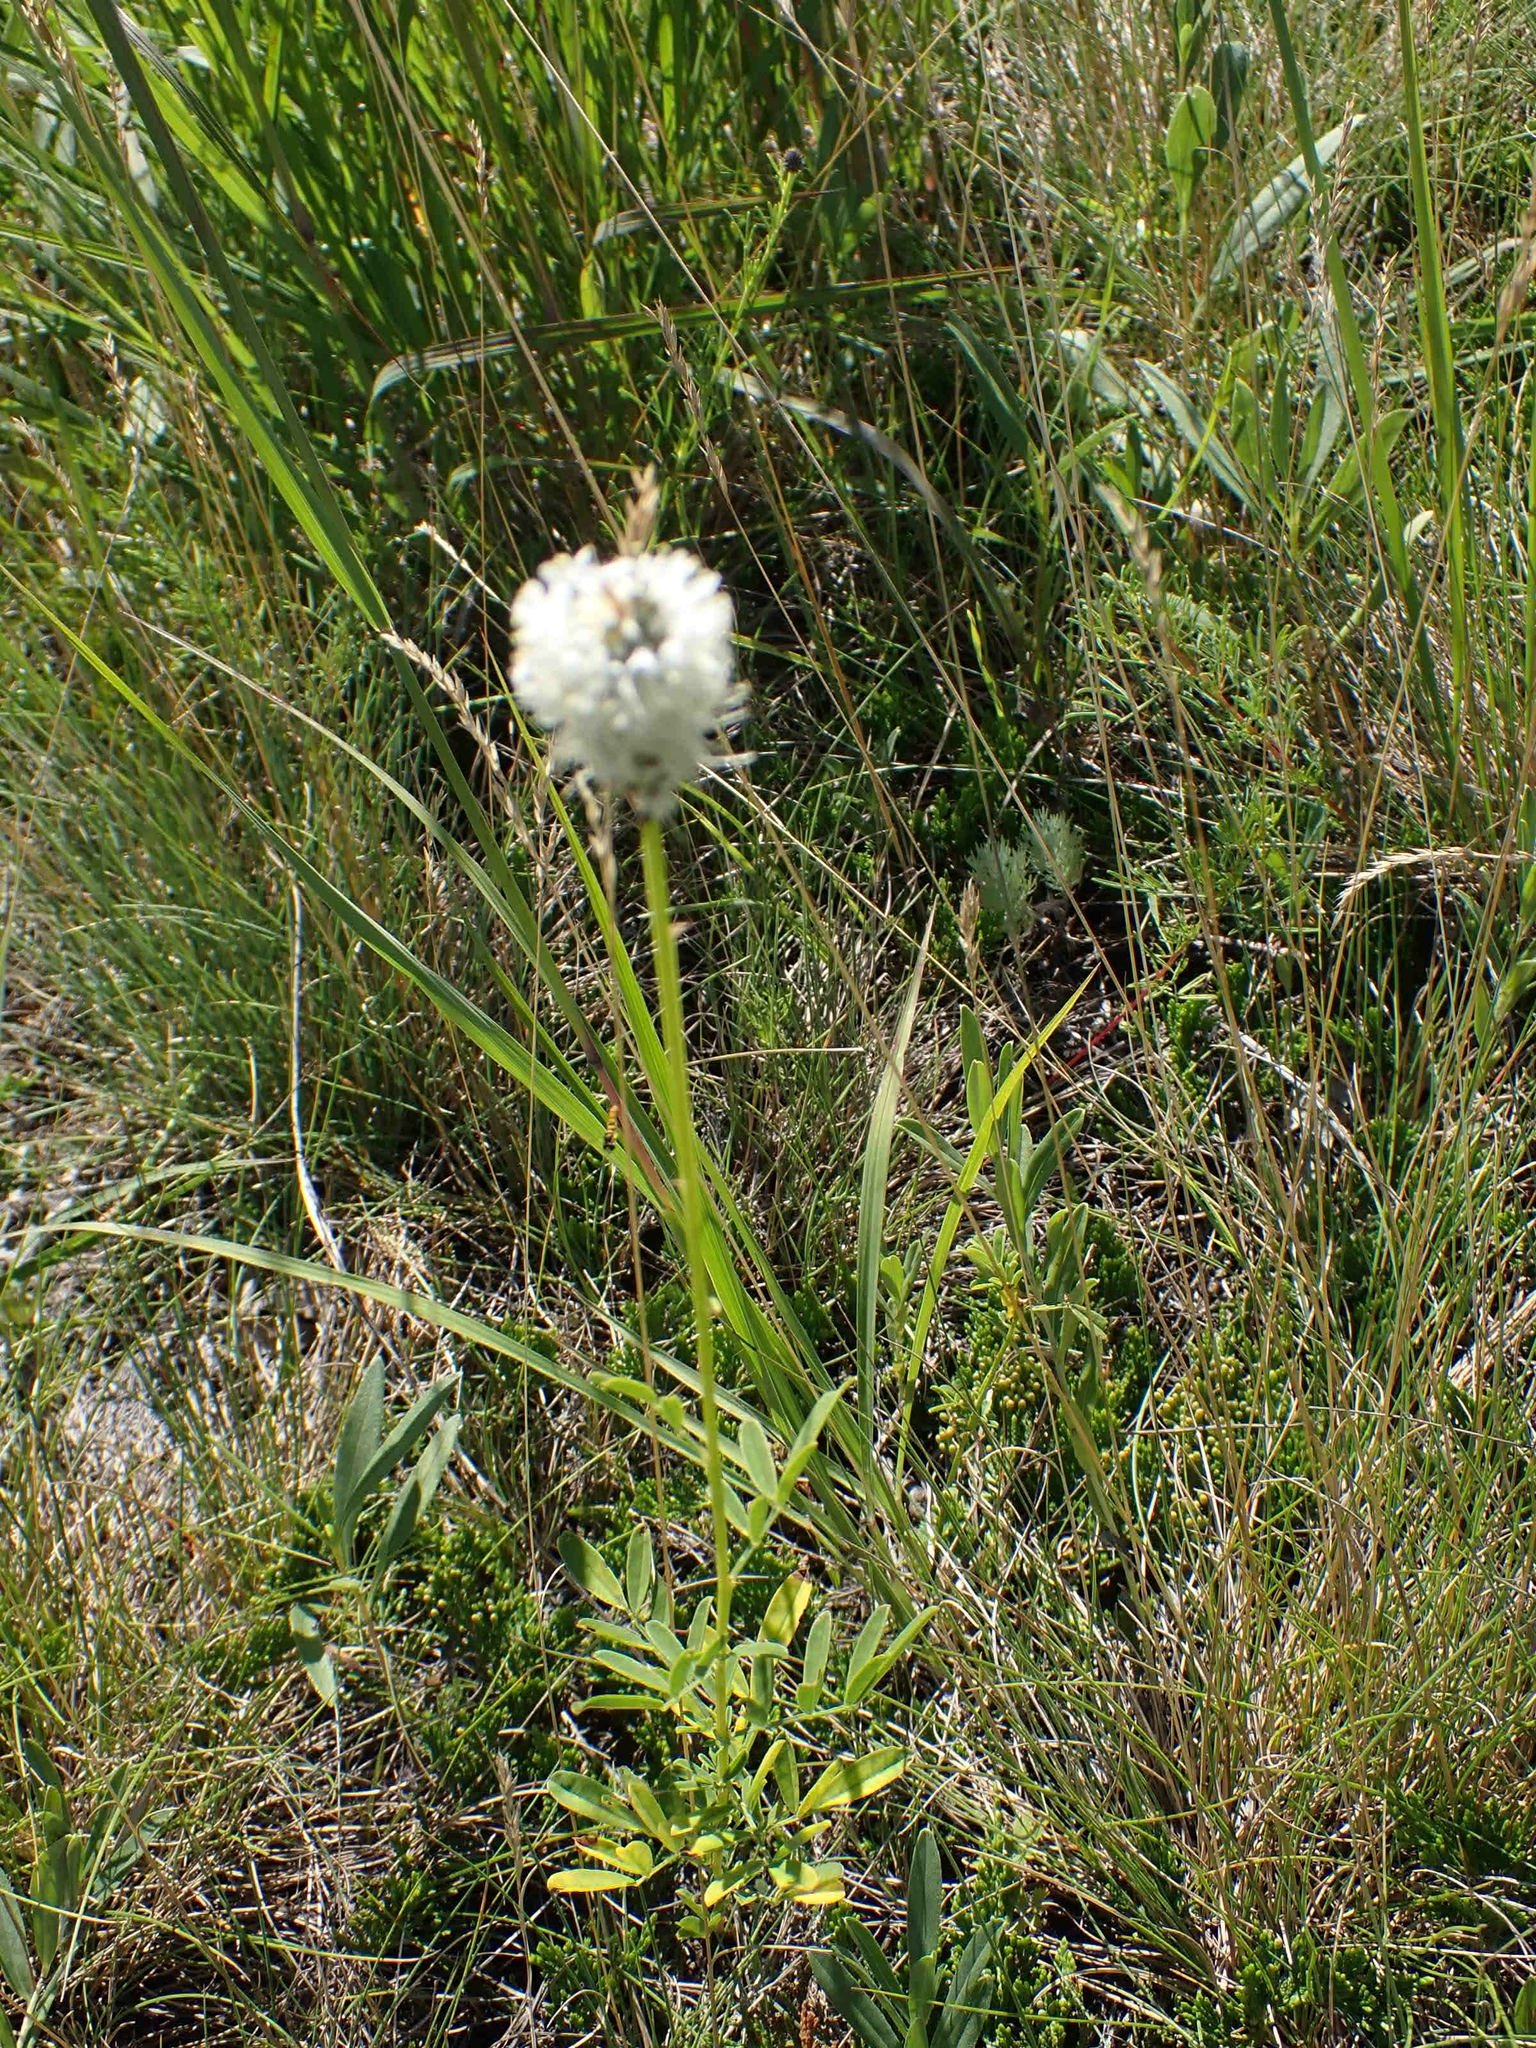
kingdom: Plantae
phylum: Tracheophyta
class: Magnoliopsida
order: Fabales
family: Fabaceae
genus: Dalea
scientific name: Dalea candida
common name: White prairie-clover
